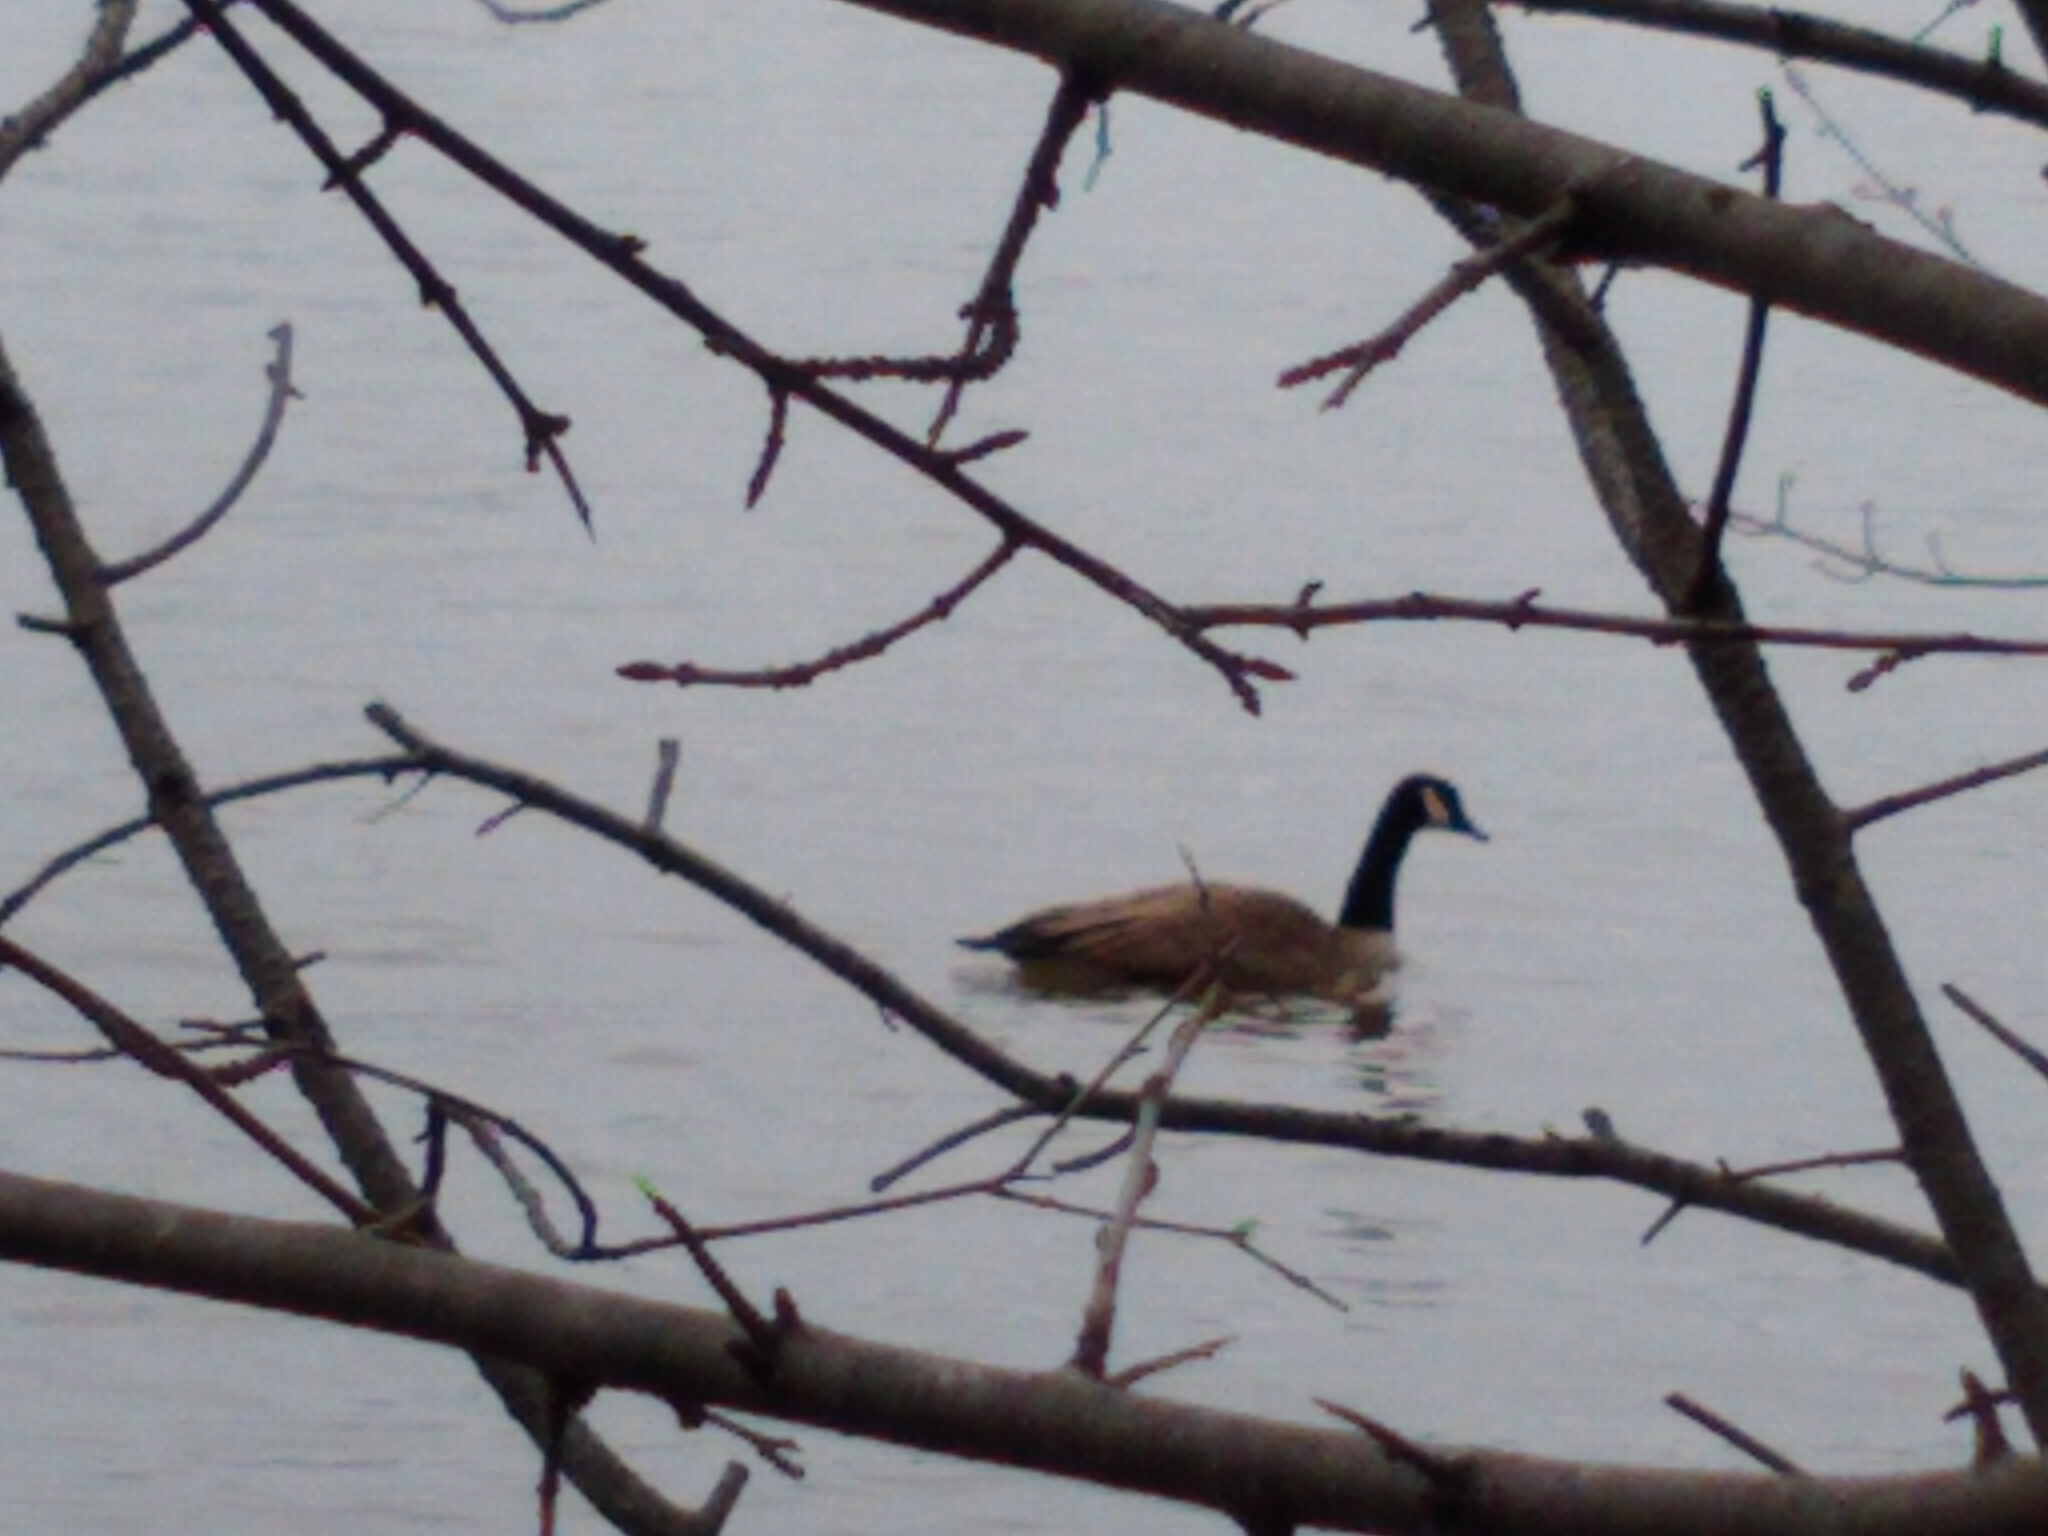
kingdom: Animalia
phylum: Chordata
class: Aves
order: Anseriformes
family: Anatidae
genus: Branta
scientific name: Branta canadensis
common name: Canada goose
